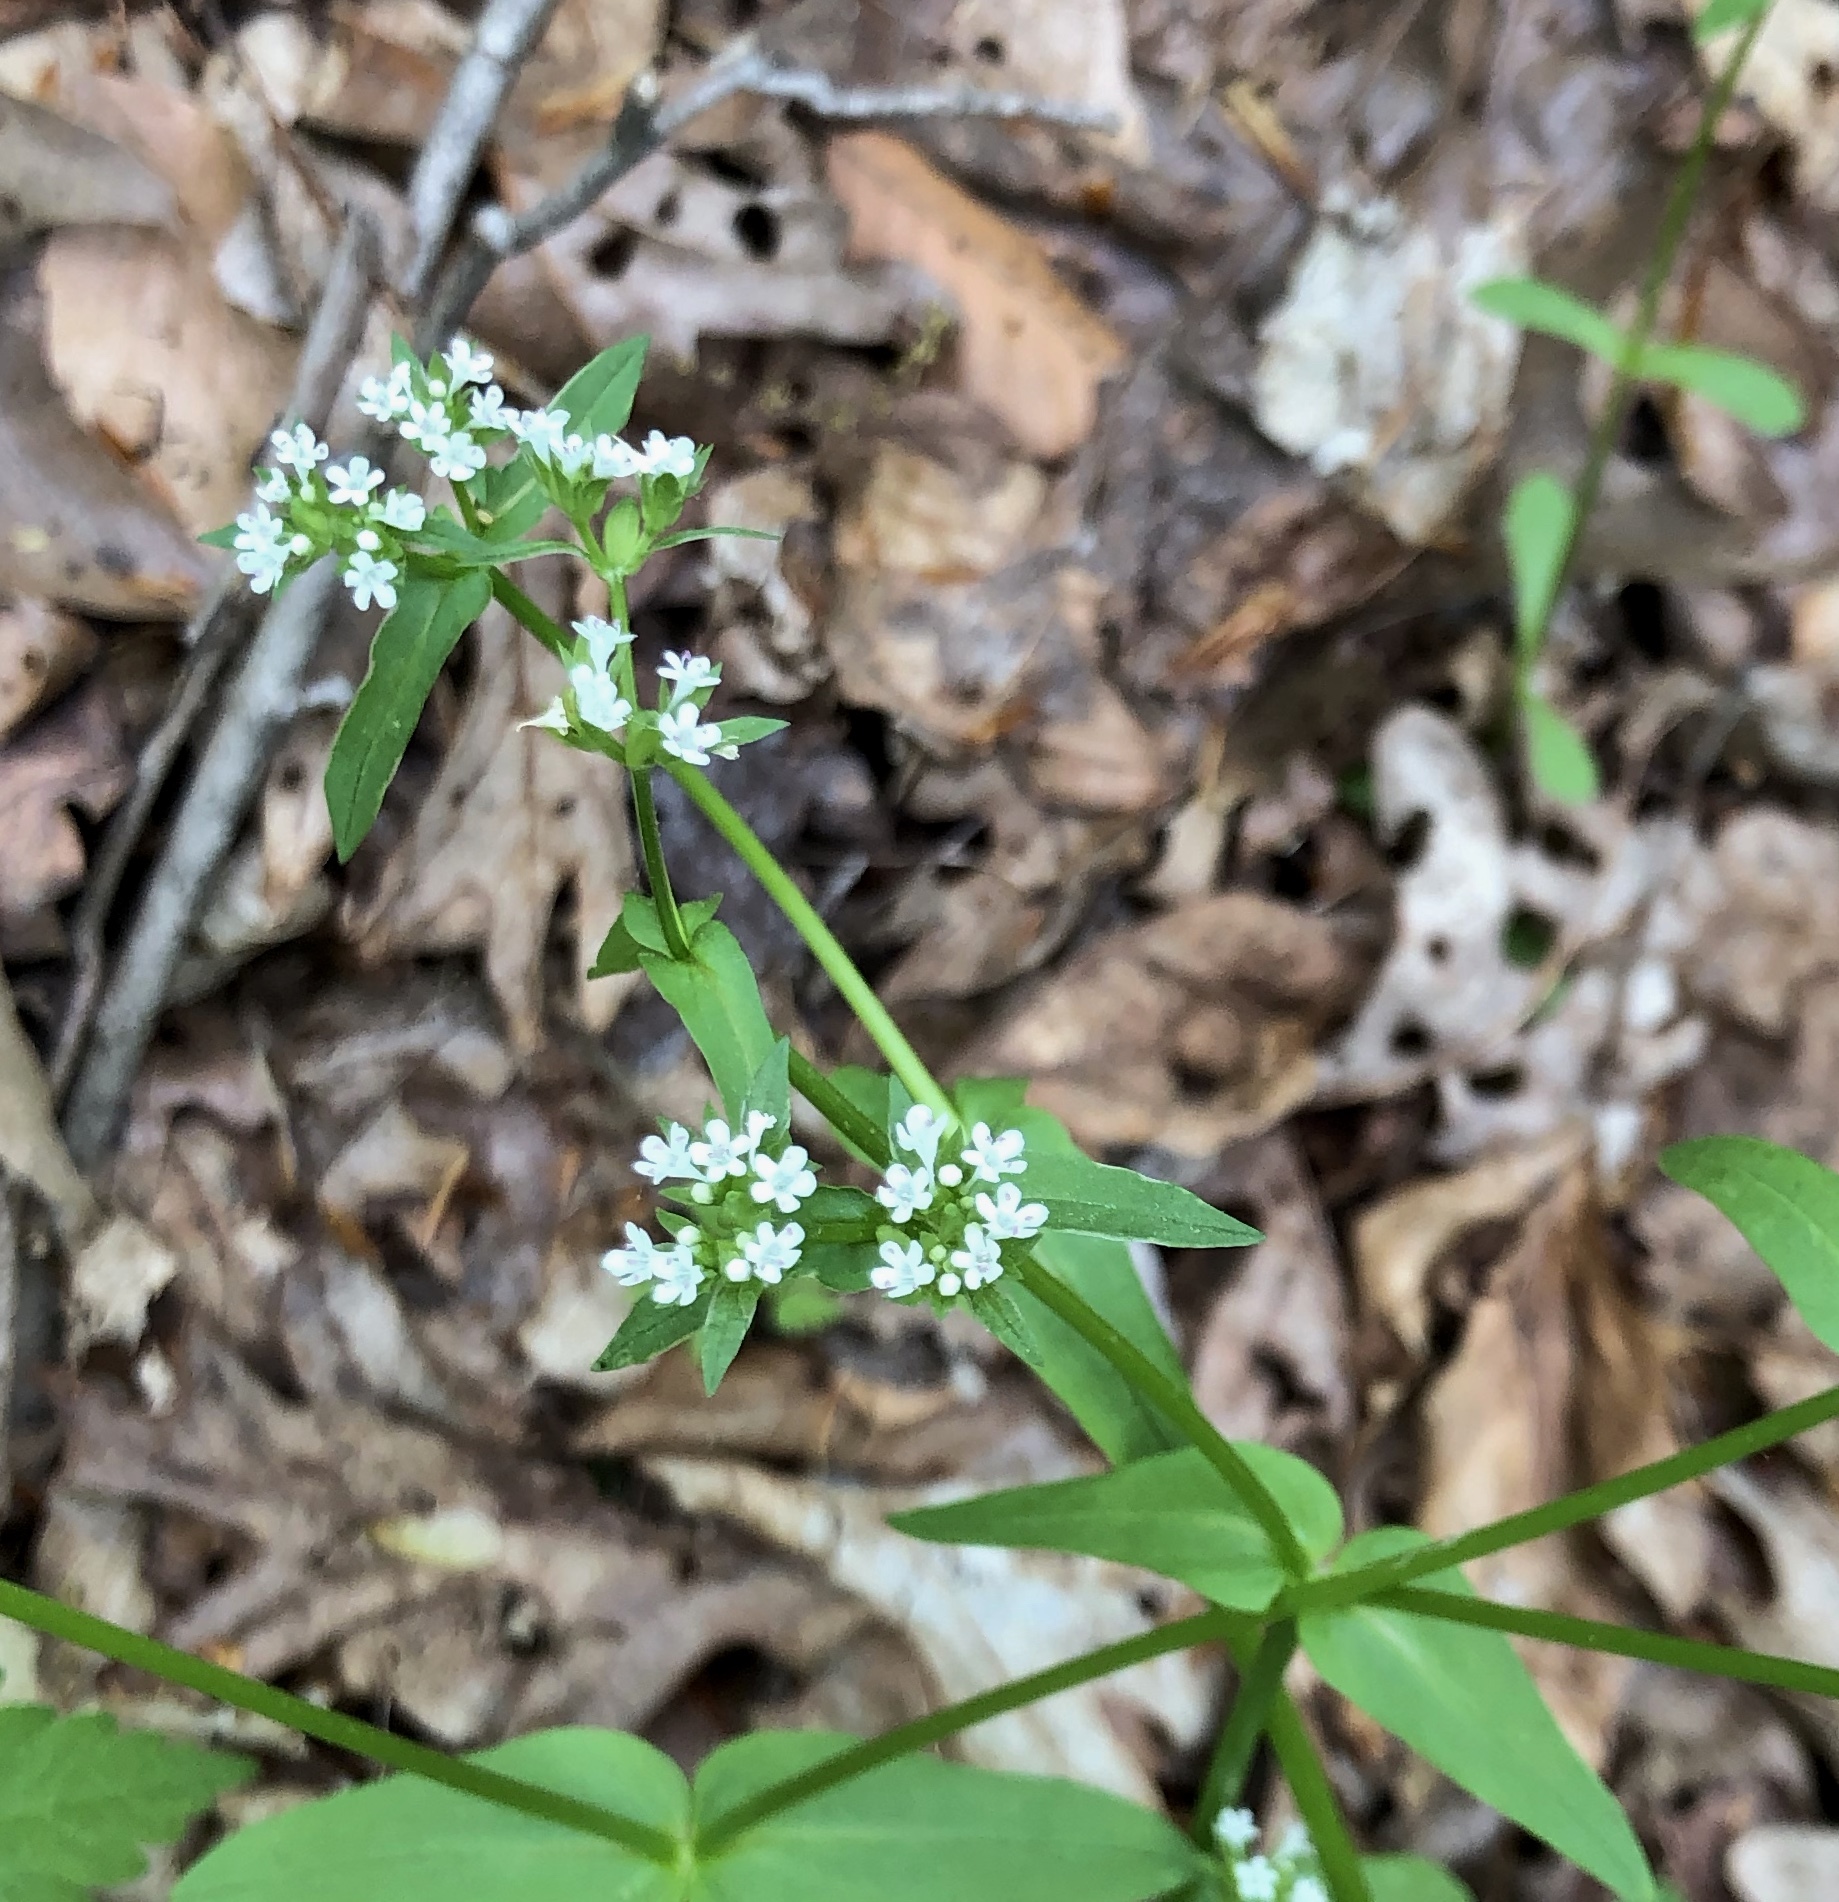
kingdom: Plantae
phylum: Tracheophyta
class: Magnoliopsida
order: Dipsacales
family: Caprifoliaceae
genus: Valerianella
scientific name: Valerianella locusta
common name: Common cornsalad
